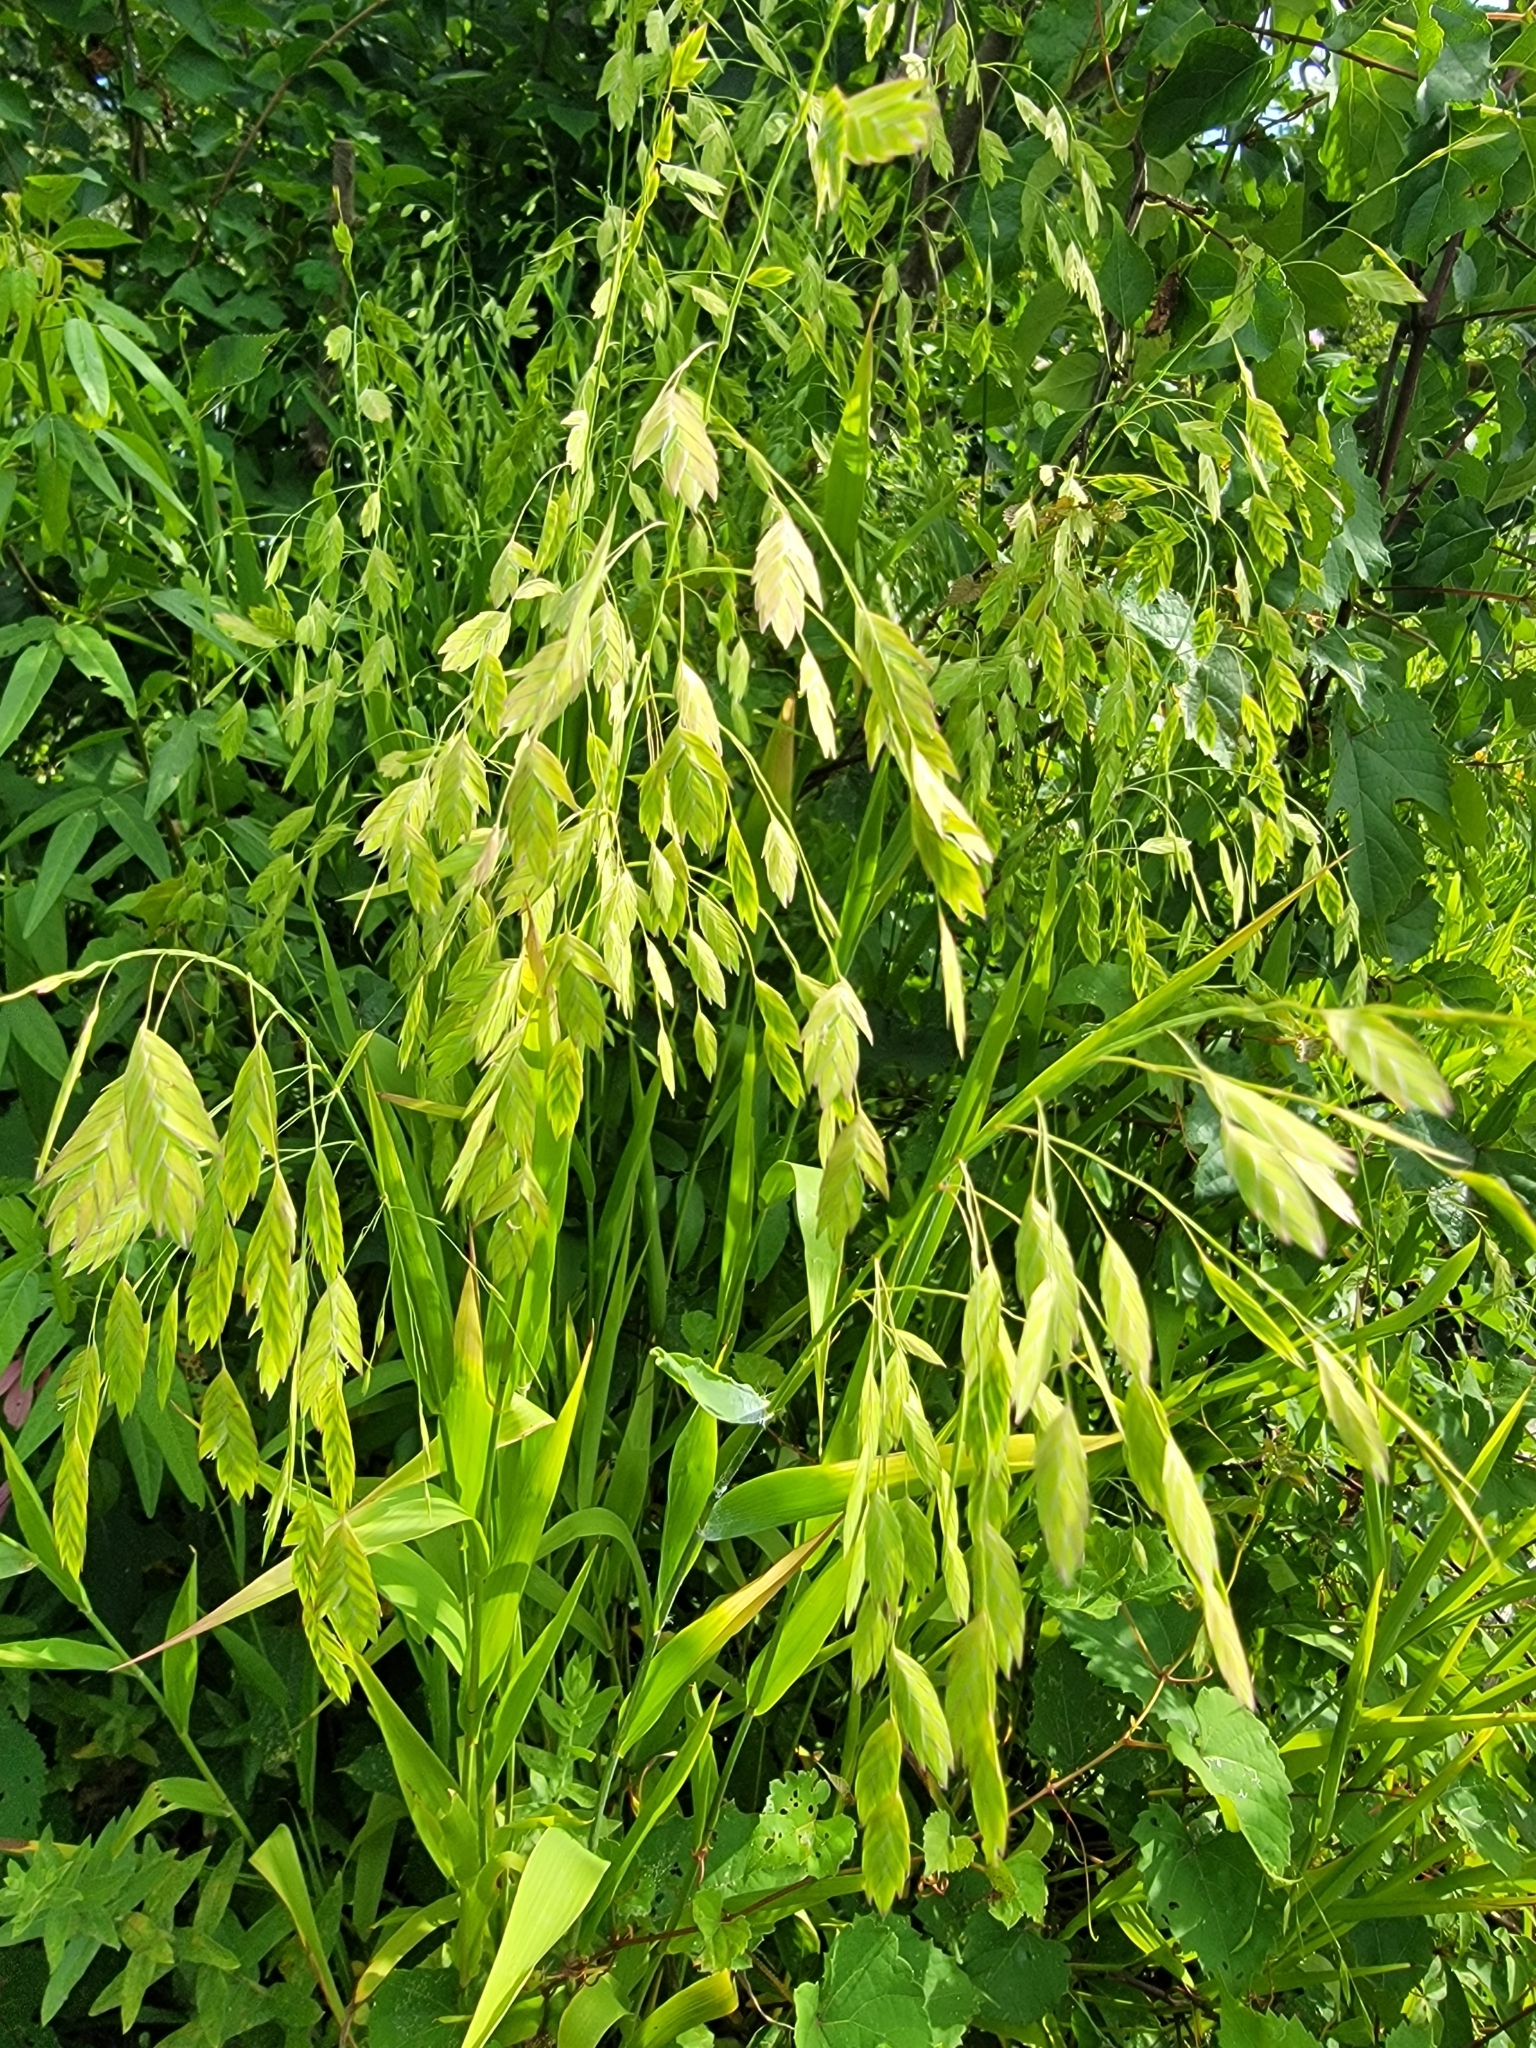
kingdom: Plantae
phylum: Tracheophyta
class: Liliopsida
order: Poales
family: Poaceae
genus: Chasmanthium
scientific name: Chasmanthium latifolium
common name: Broad-leaved chasmanthium
